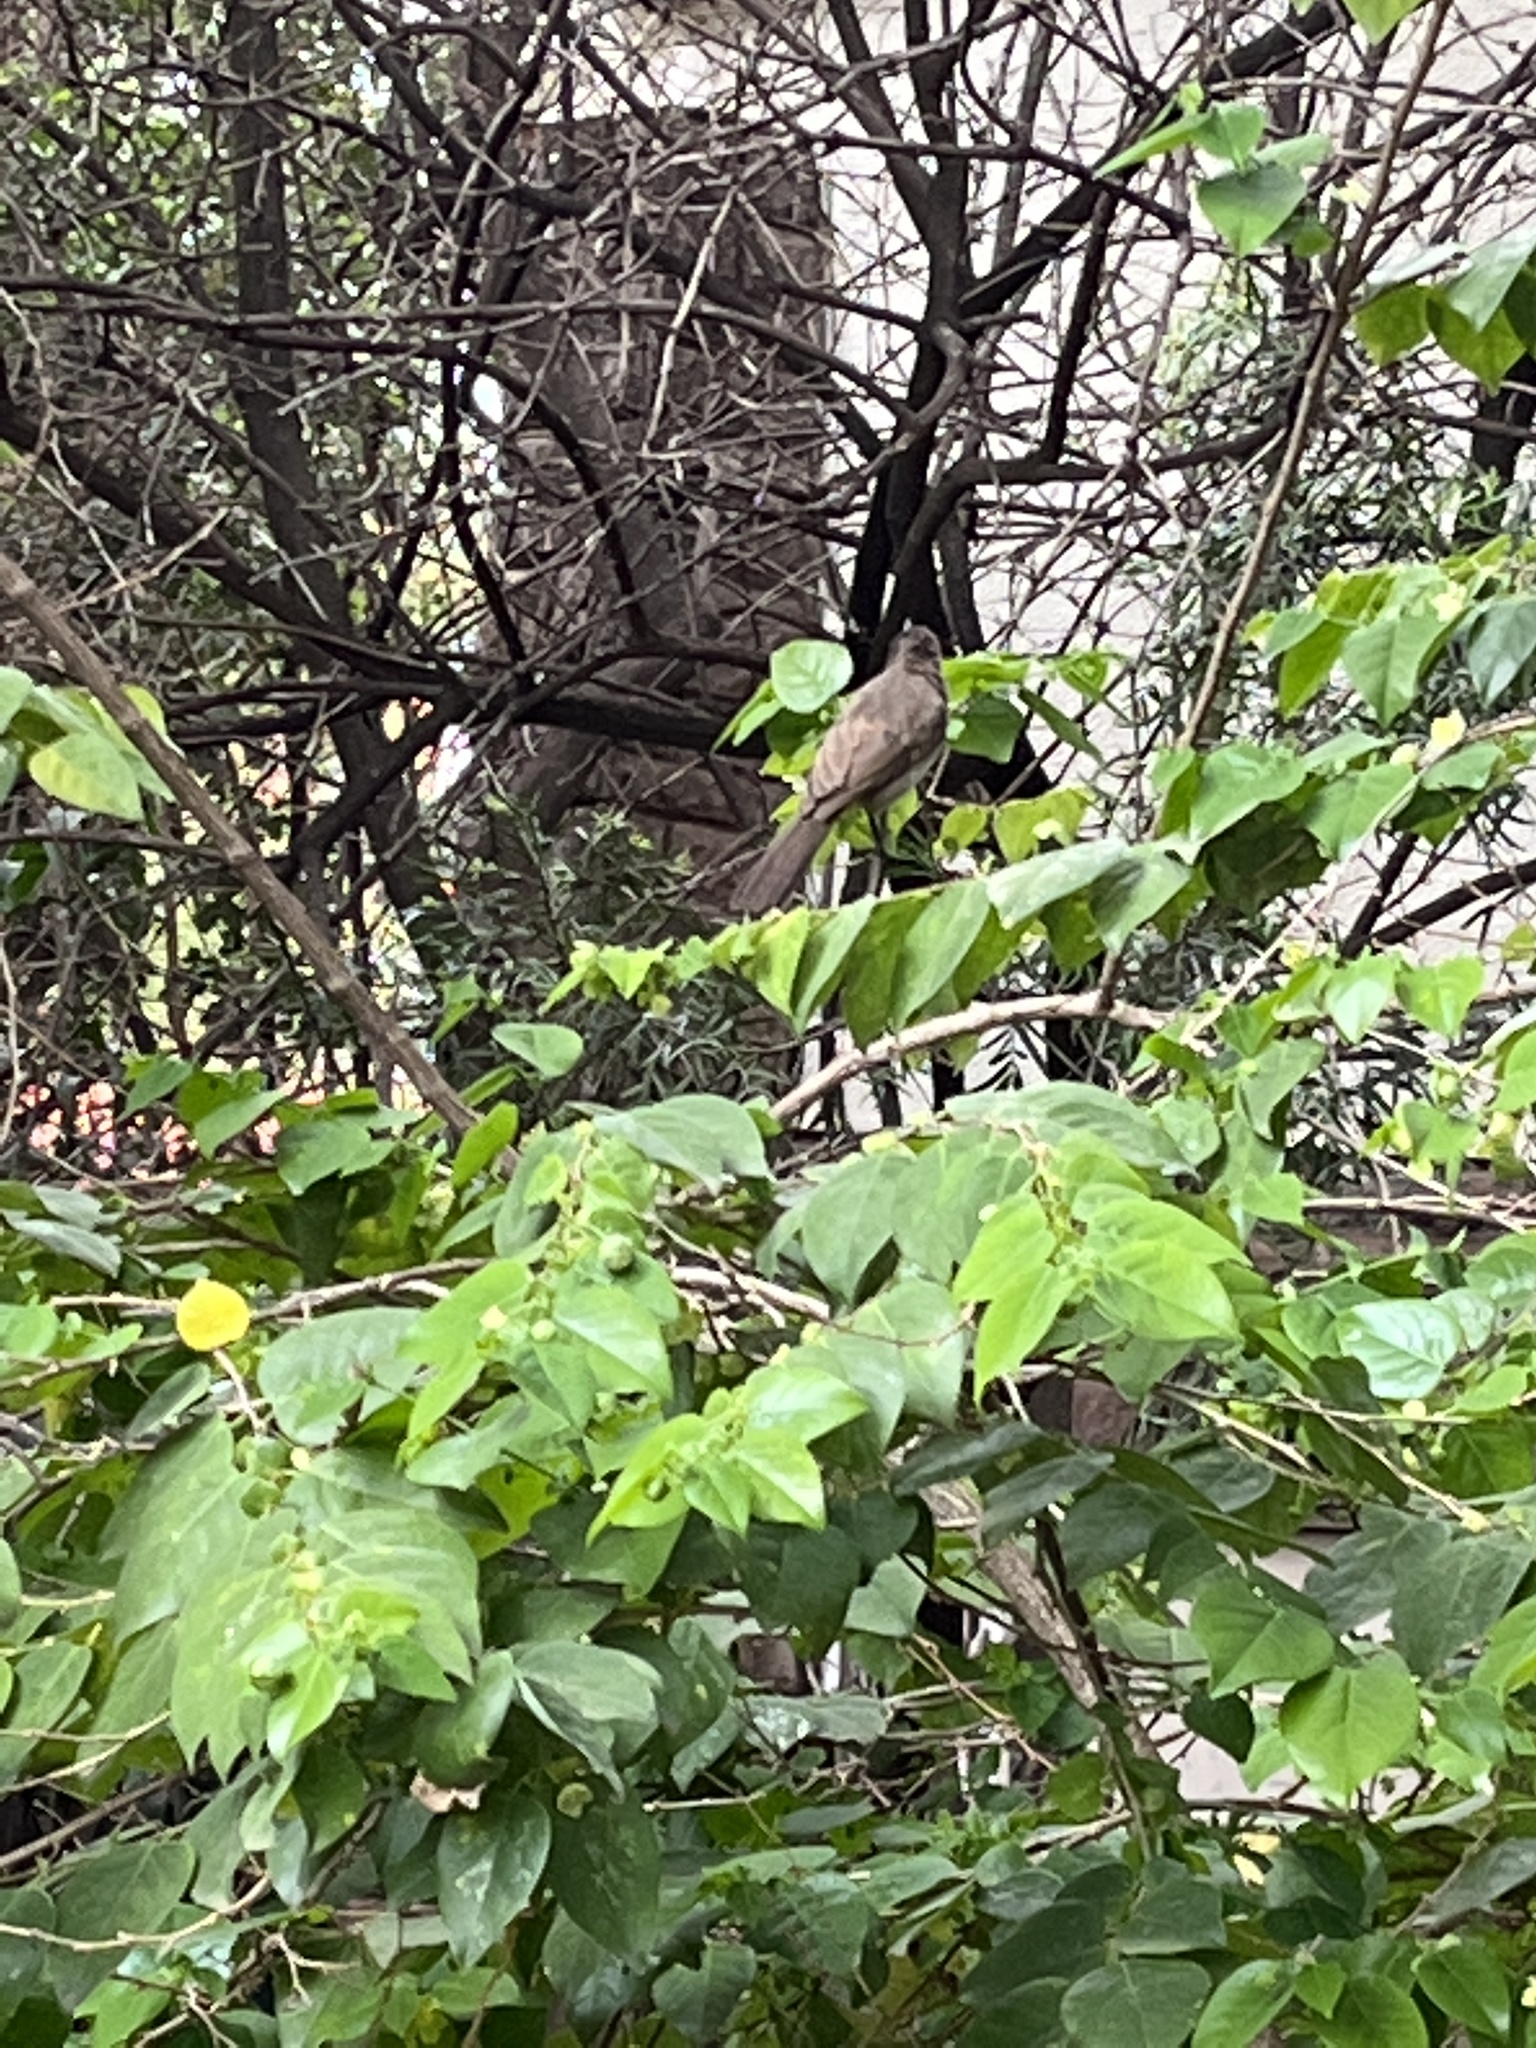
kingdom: Animalia
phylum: Chordata
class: Aves
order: Passeriformes
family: Pycnonotidae
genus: Pycnonotus
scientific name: Pycnonotus barbatus
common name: Common bulbul
